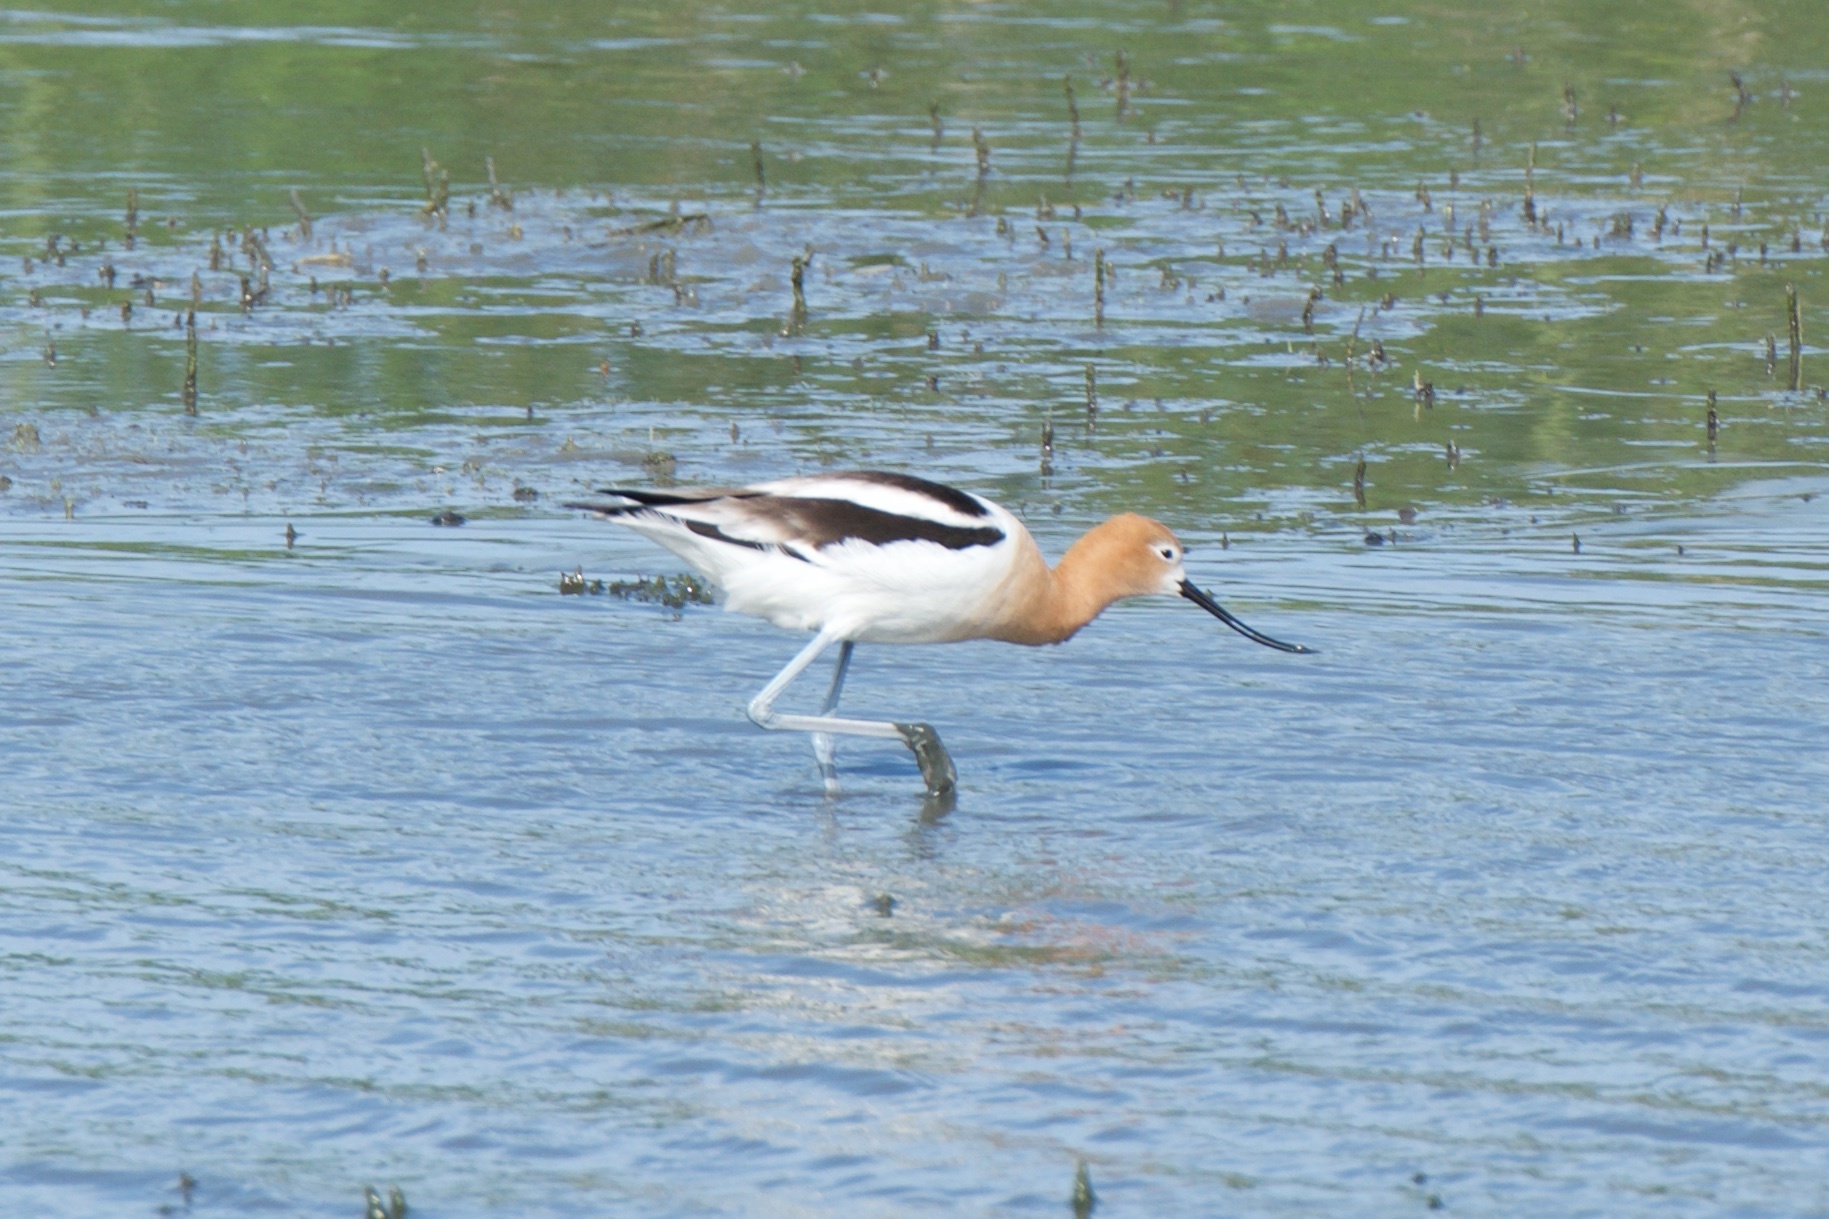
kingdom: Animalia
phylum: Chordata
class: Aves
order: Charadriiformes
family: Recurvirostridae
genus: Recurvirostra
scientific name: Recurvirostra americana
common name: American avocet
